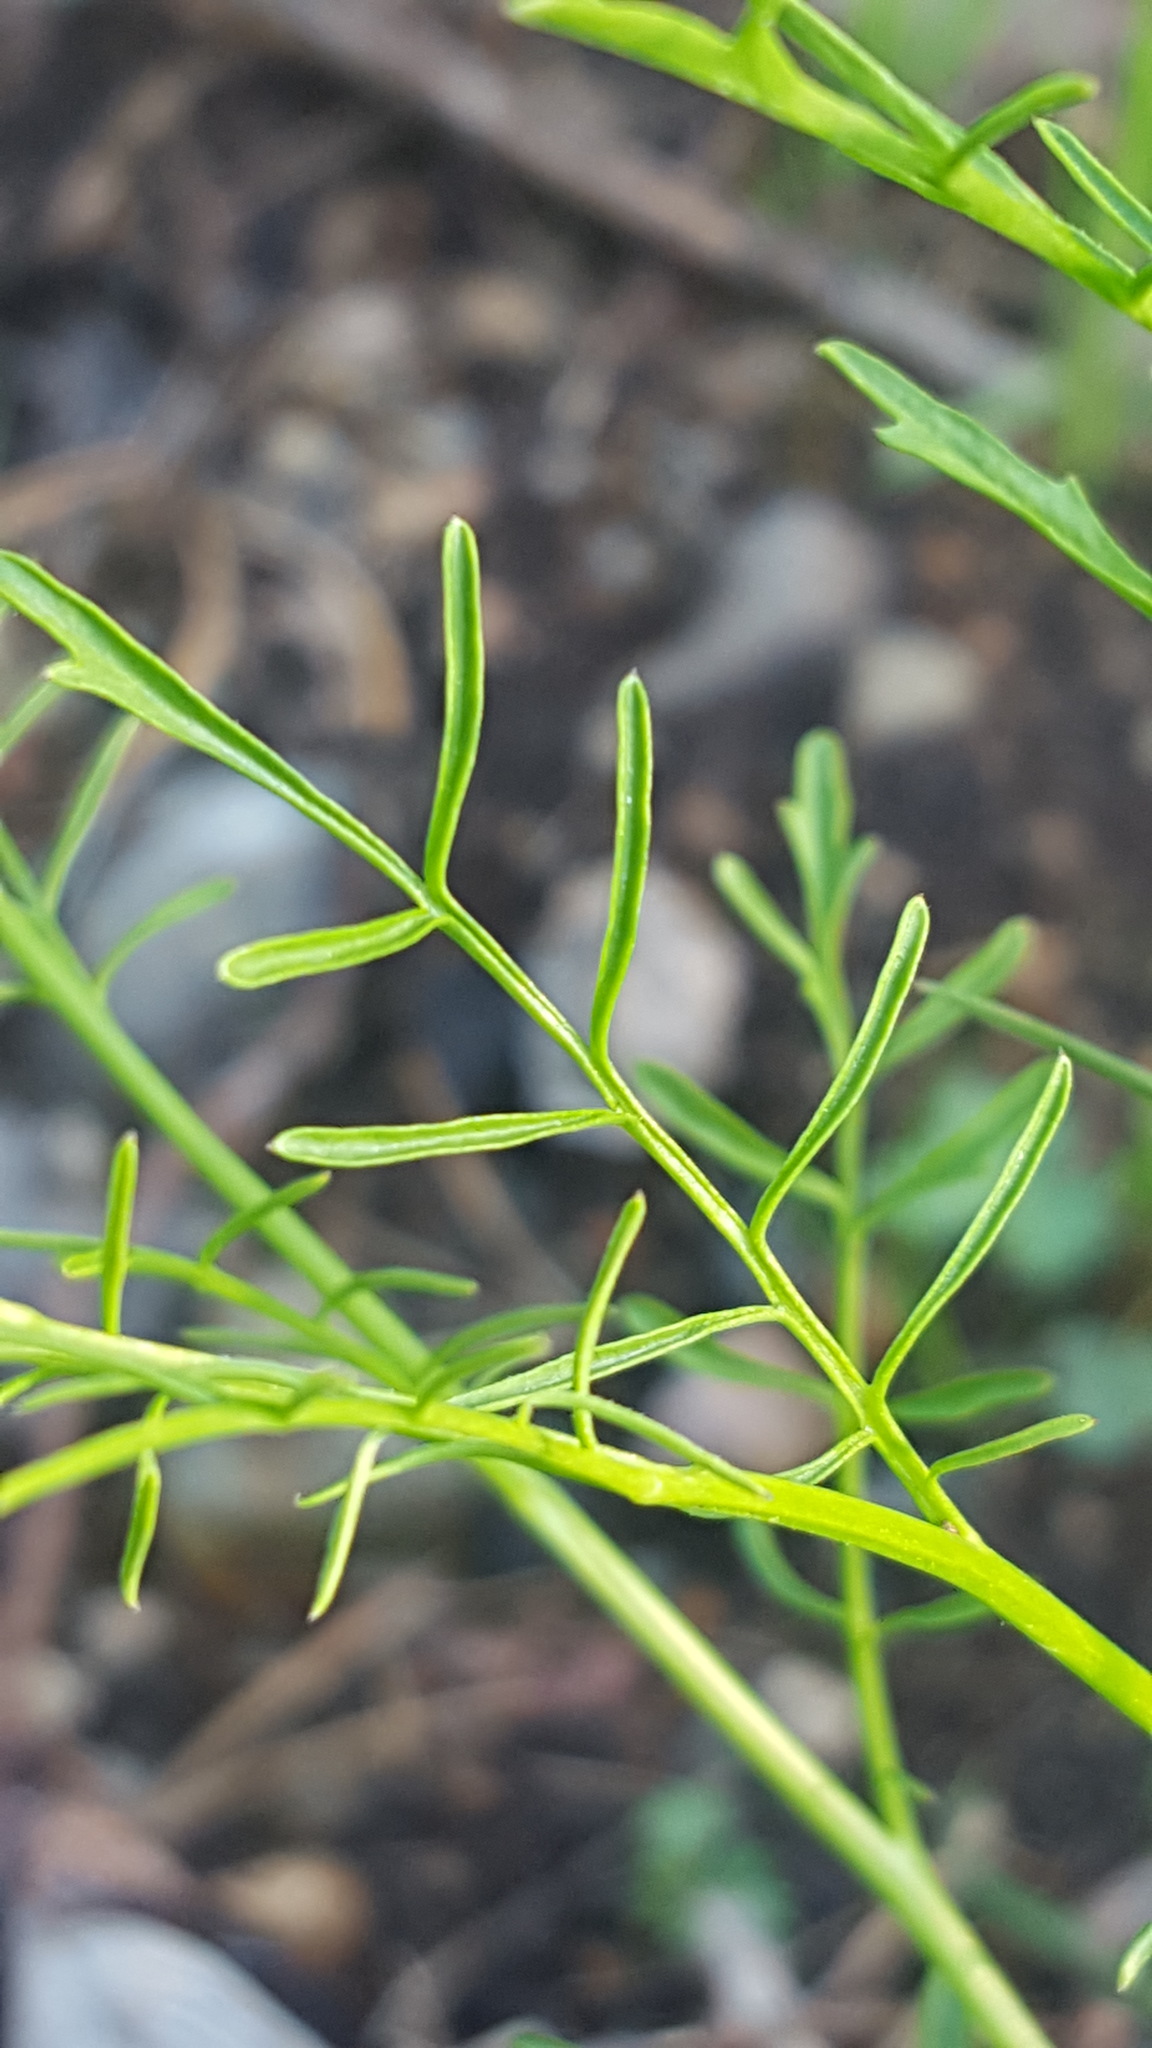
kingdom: Plantae
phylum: Tracheophyta
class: Magnoliopsida
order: Brassicales
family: Brassicaceae
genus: Cardamine
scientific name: Cardamine pensylvanica
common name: Pennsylvania bittercress
